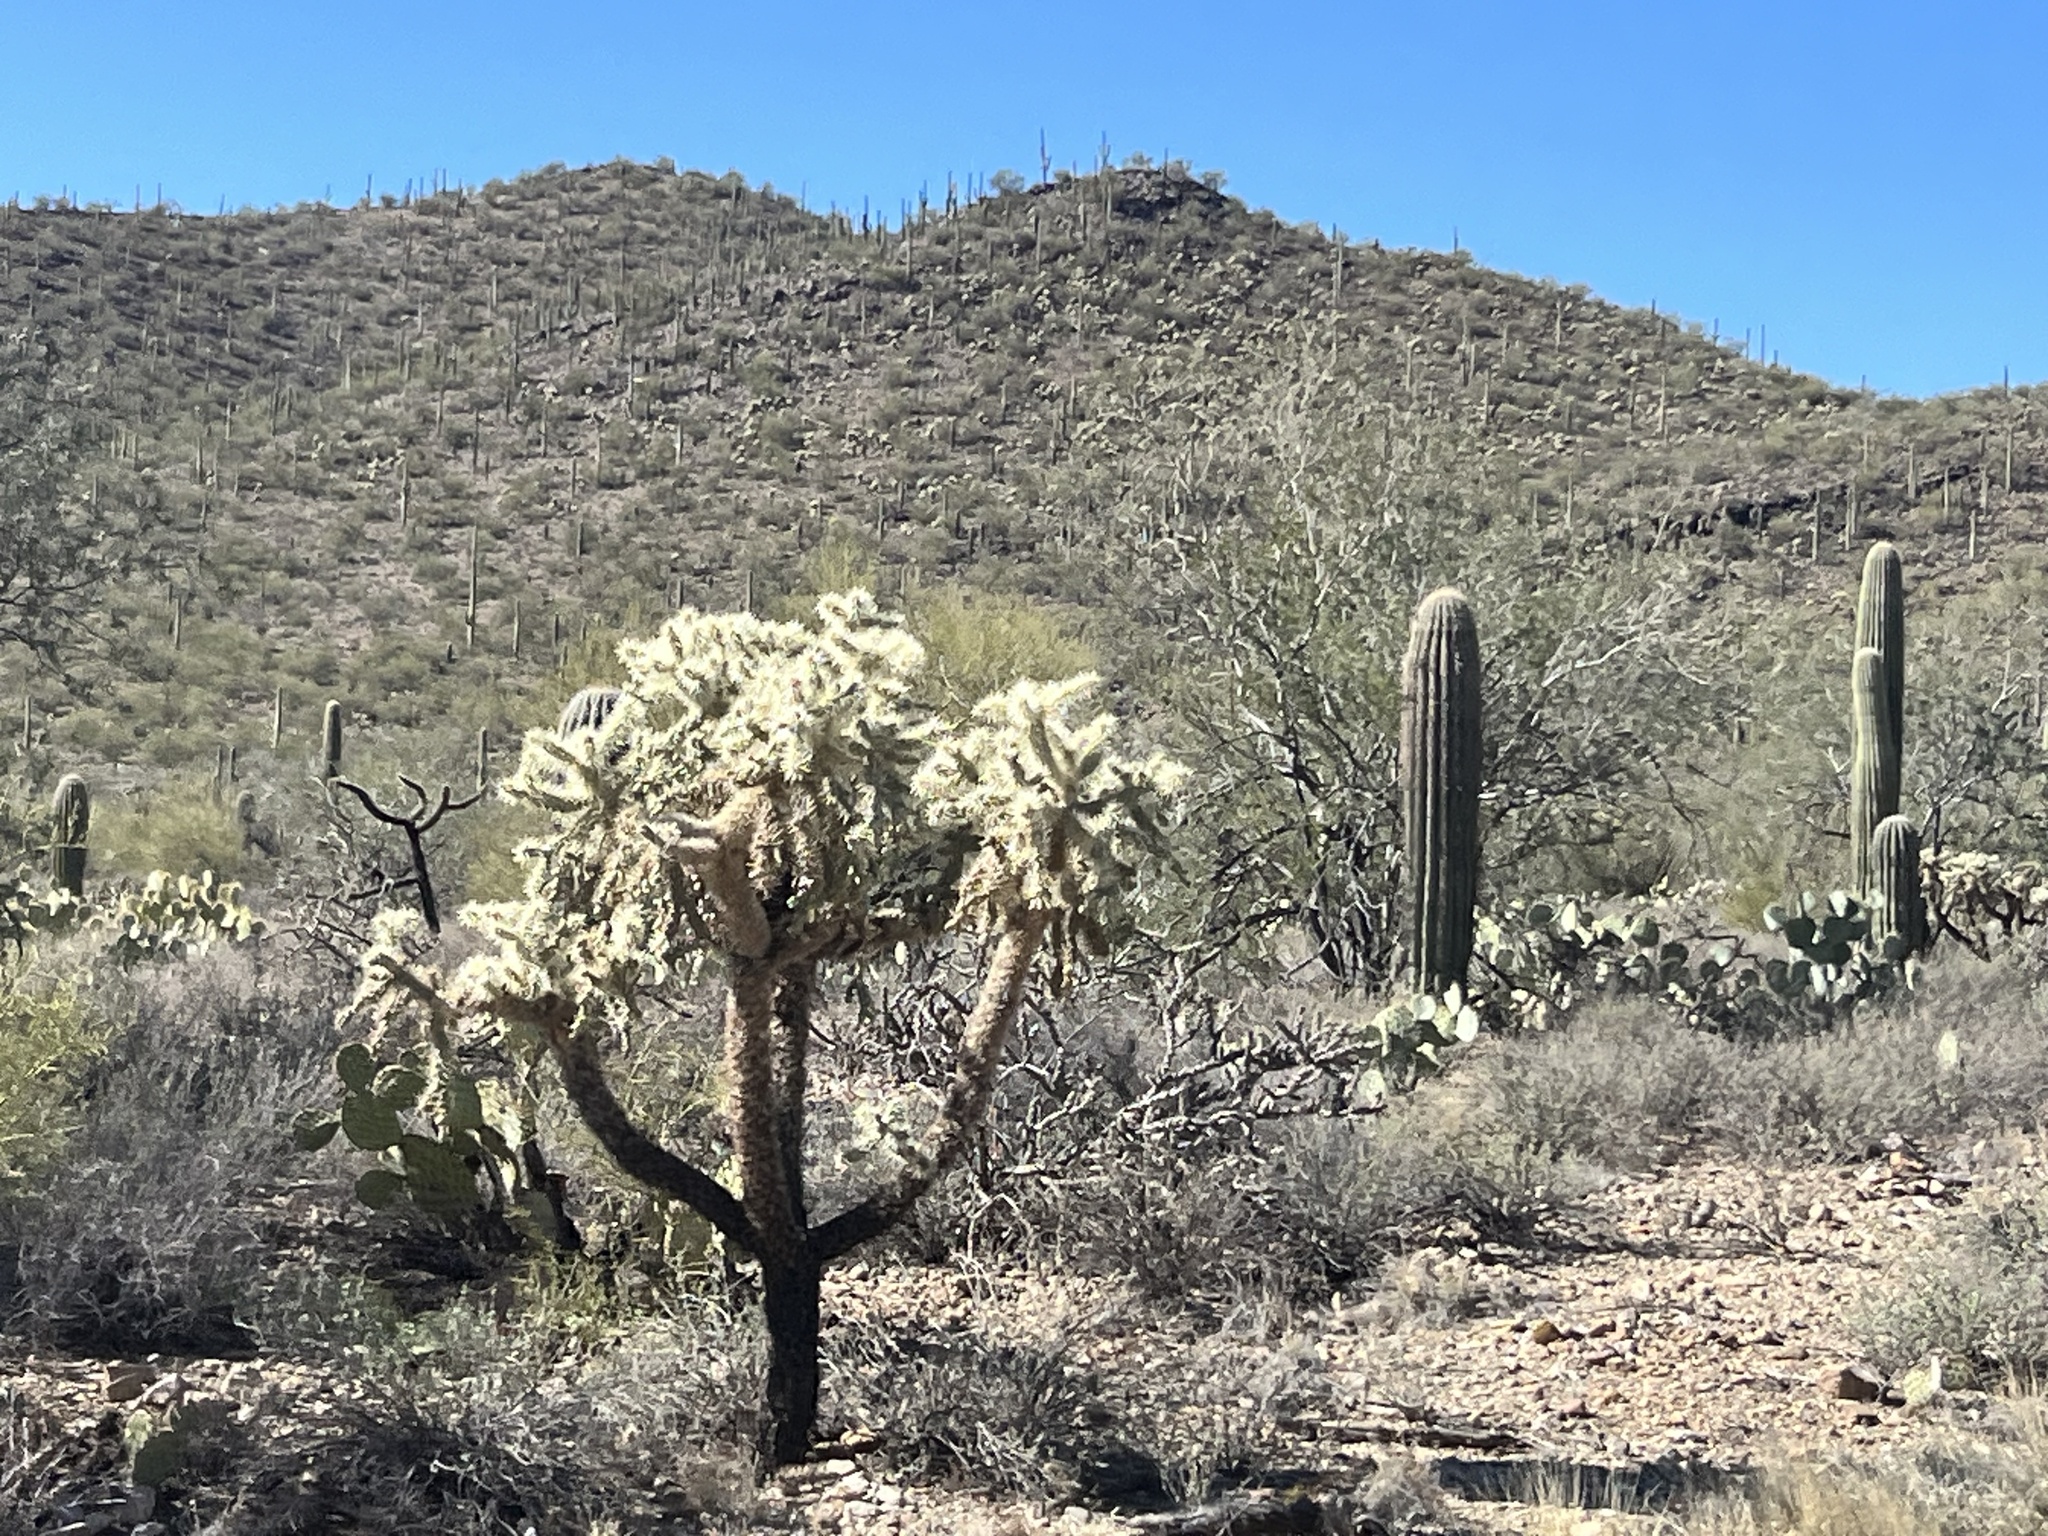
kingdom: Plantae
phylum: Tracheophyta
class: Magnoliopsida
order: Caryophyllales
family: Cactaceae
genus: Cylindropuntia
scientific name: Cylindropuntia fulgida
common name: Jumping cholla
